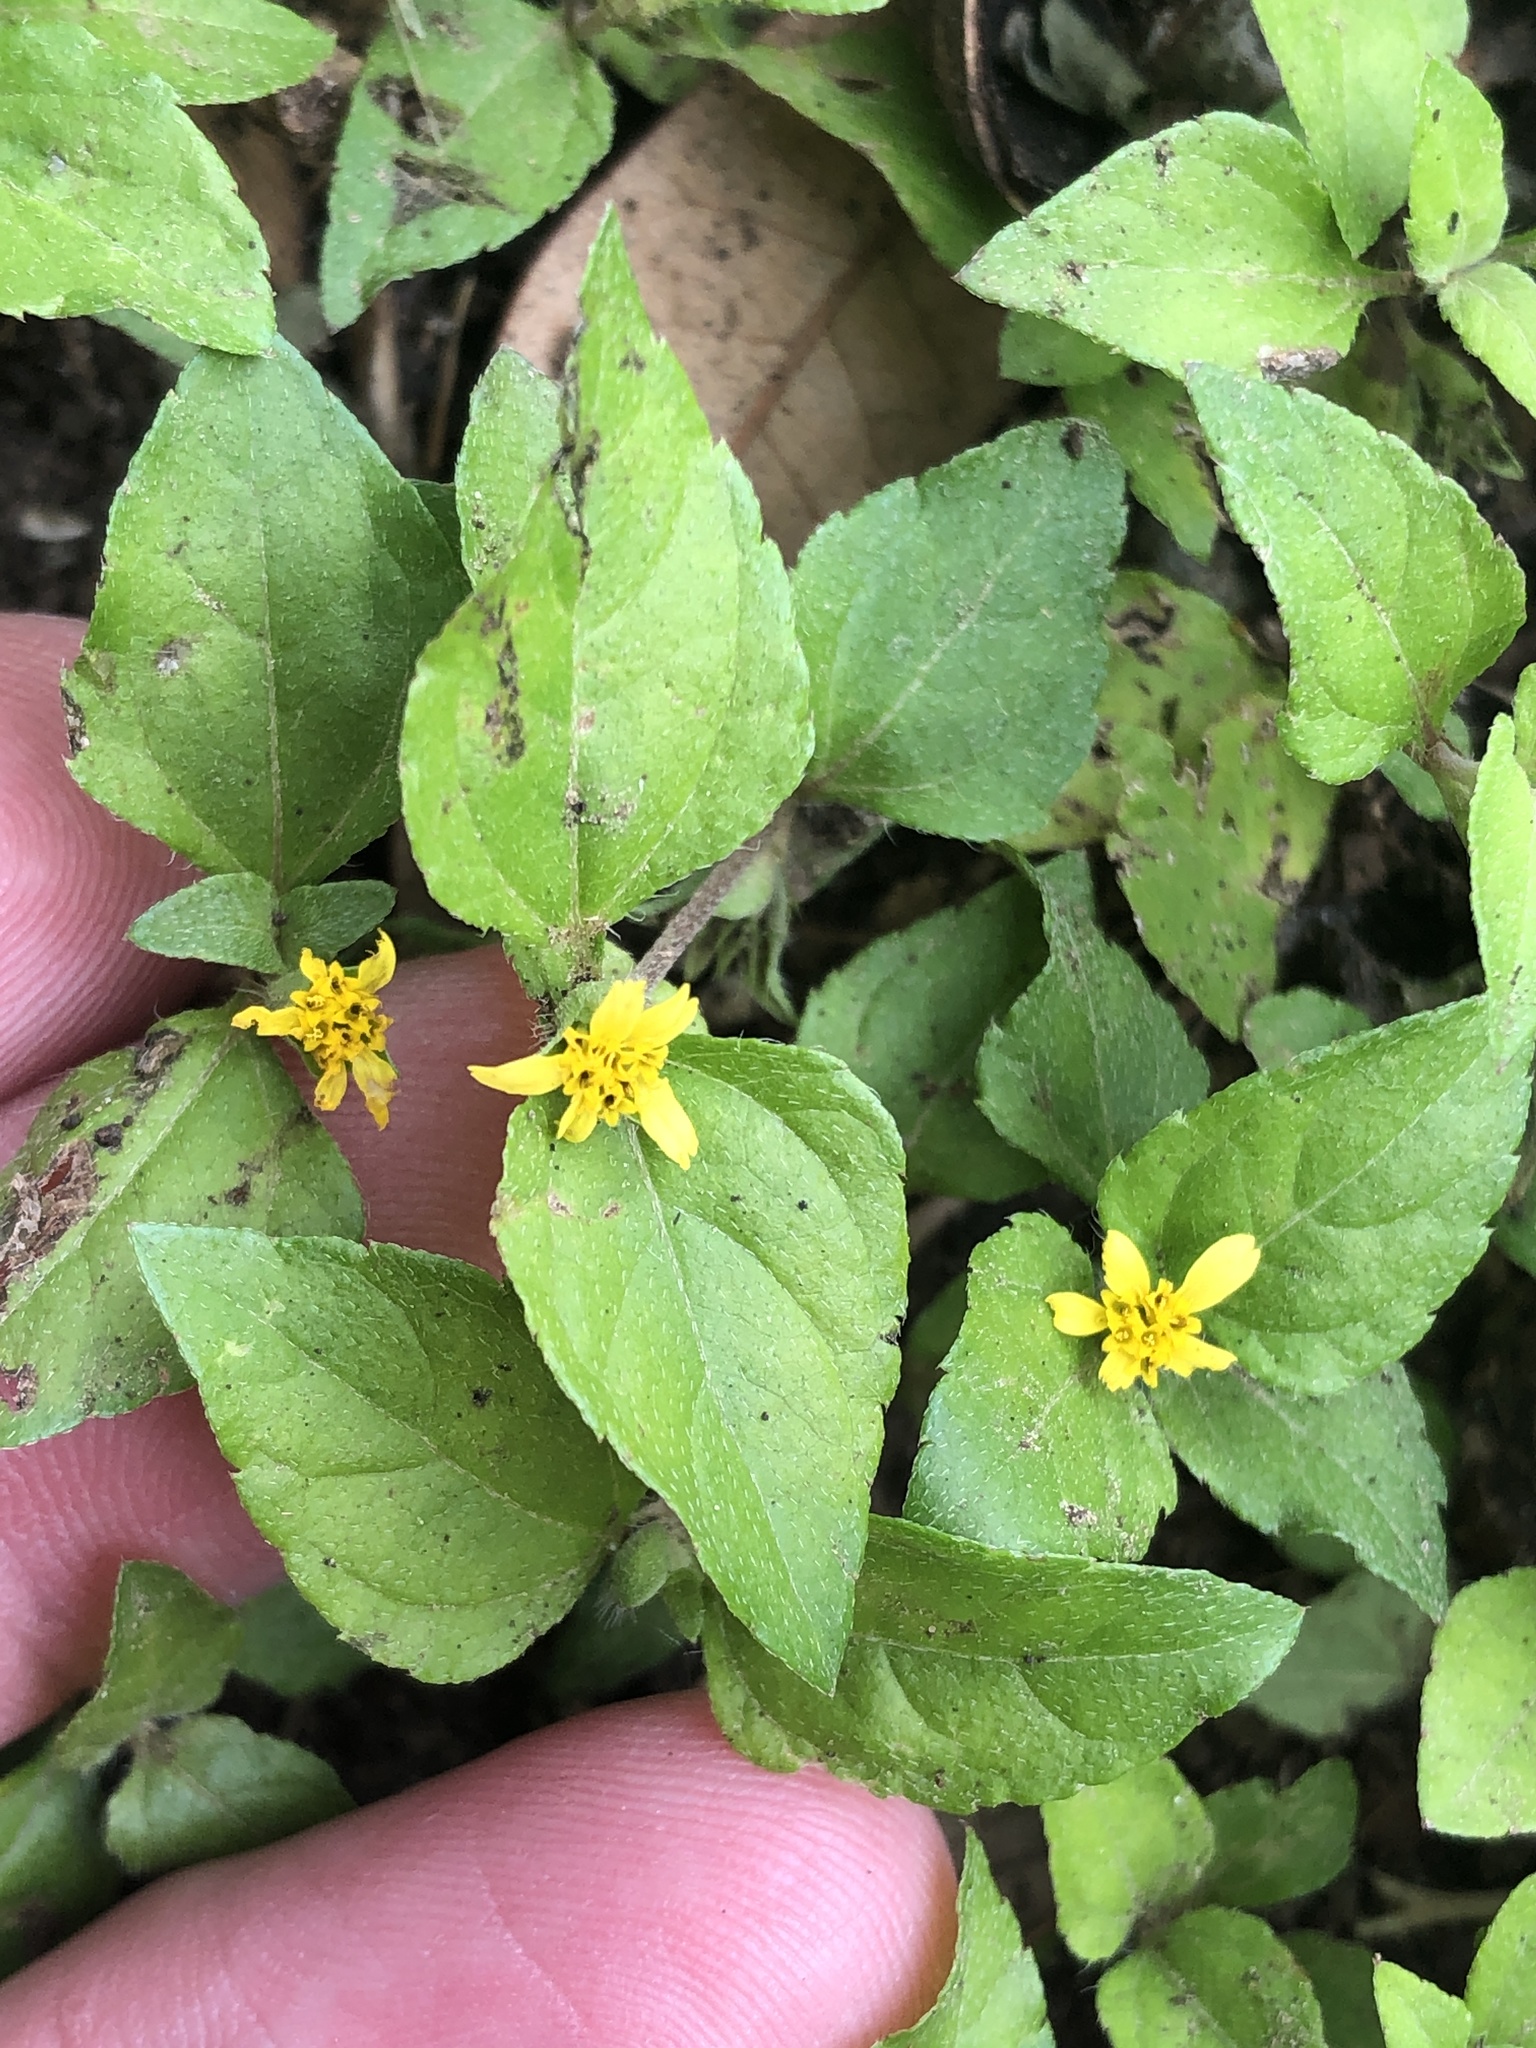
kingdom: Plantae
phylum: Tracheophyta
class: Magnoliopsida
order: Asterales
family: Asteraceae
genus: Calyptocarpus
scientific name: Calyptocarpus vialis
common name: Straggler daisy
